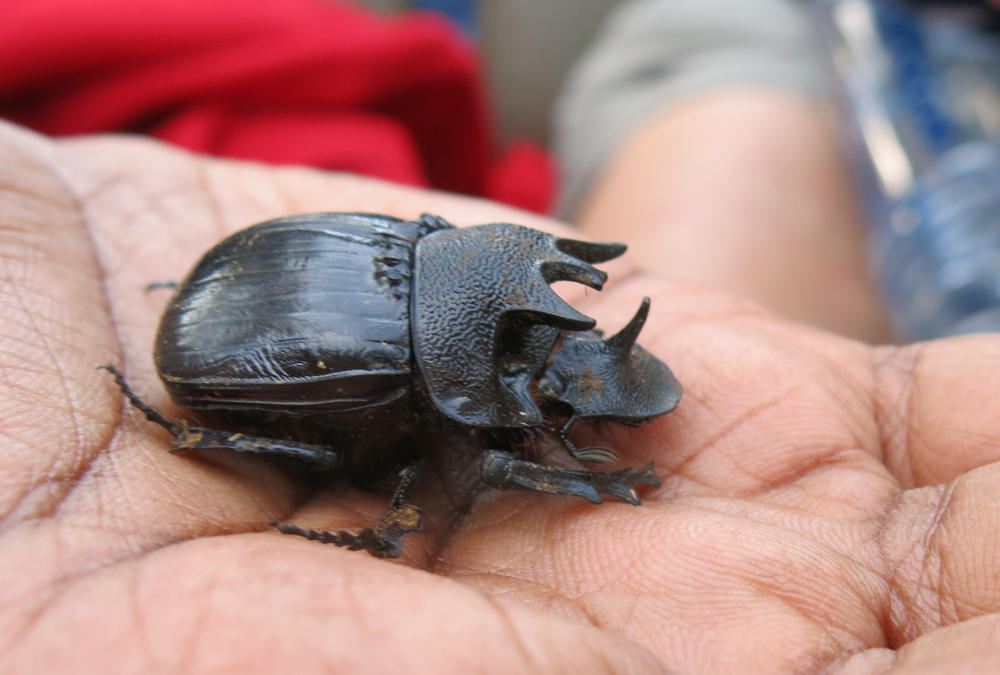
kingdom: Animalia
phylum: Arthropoda
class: Insecta
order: Coleoptera
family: Scarabaeidae
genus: Heliocopris
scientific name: Heliocopris neptunus
